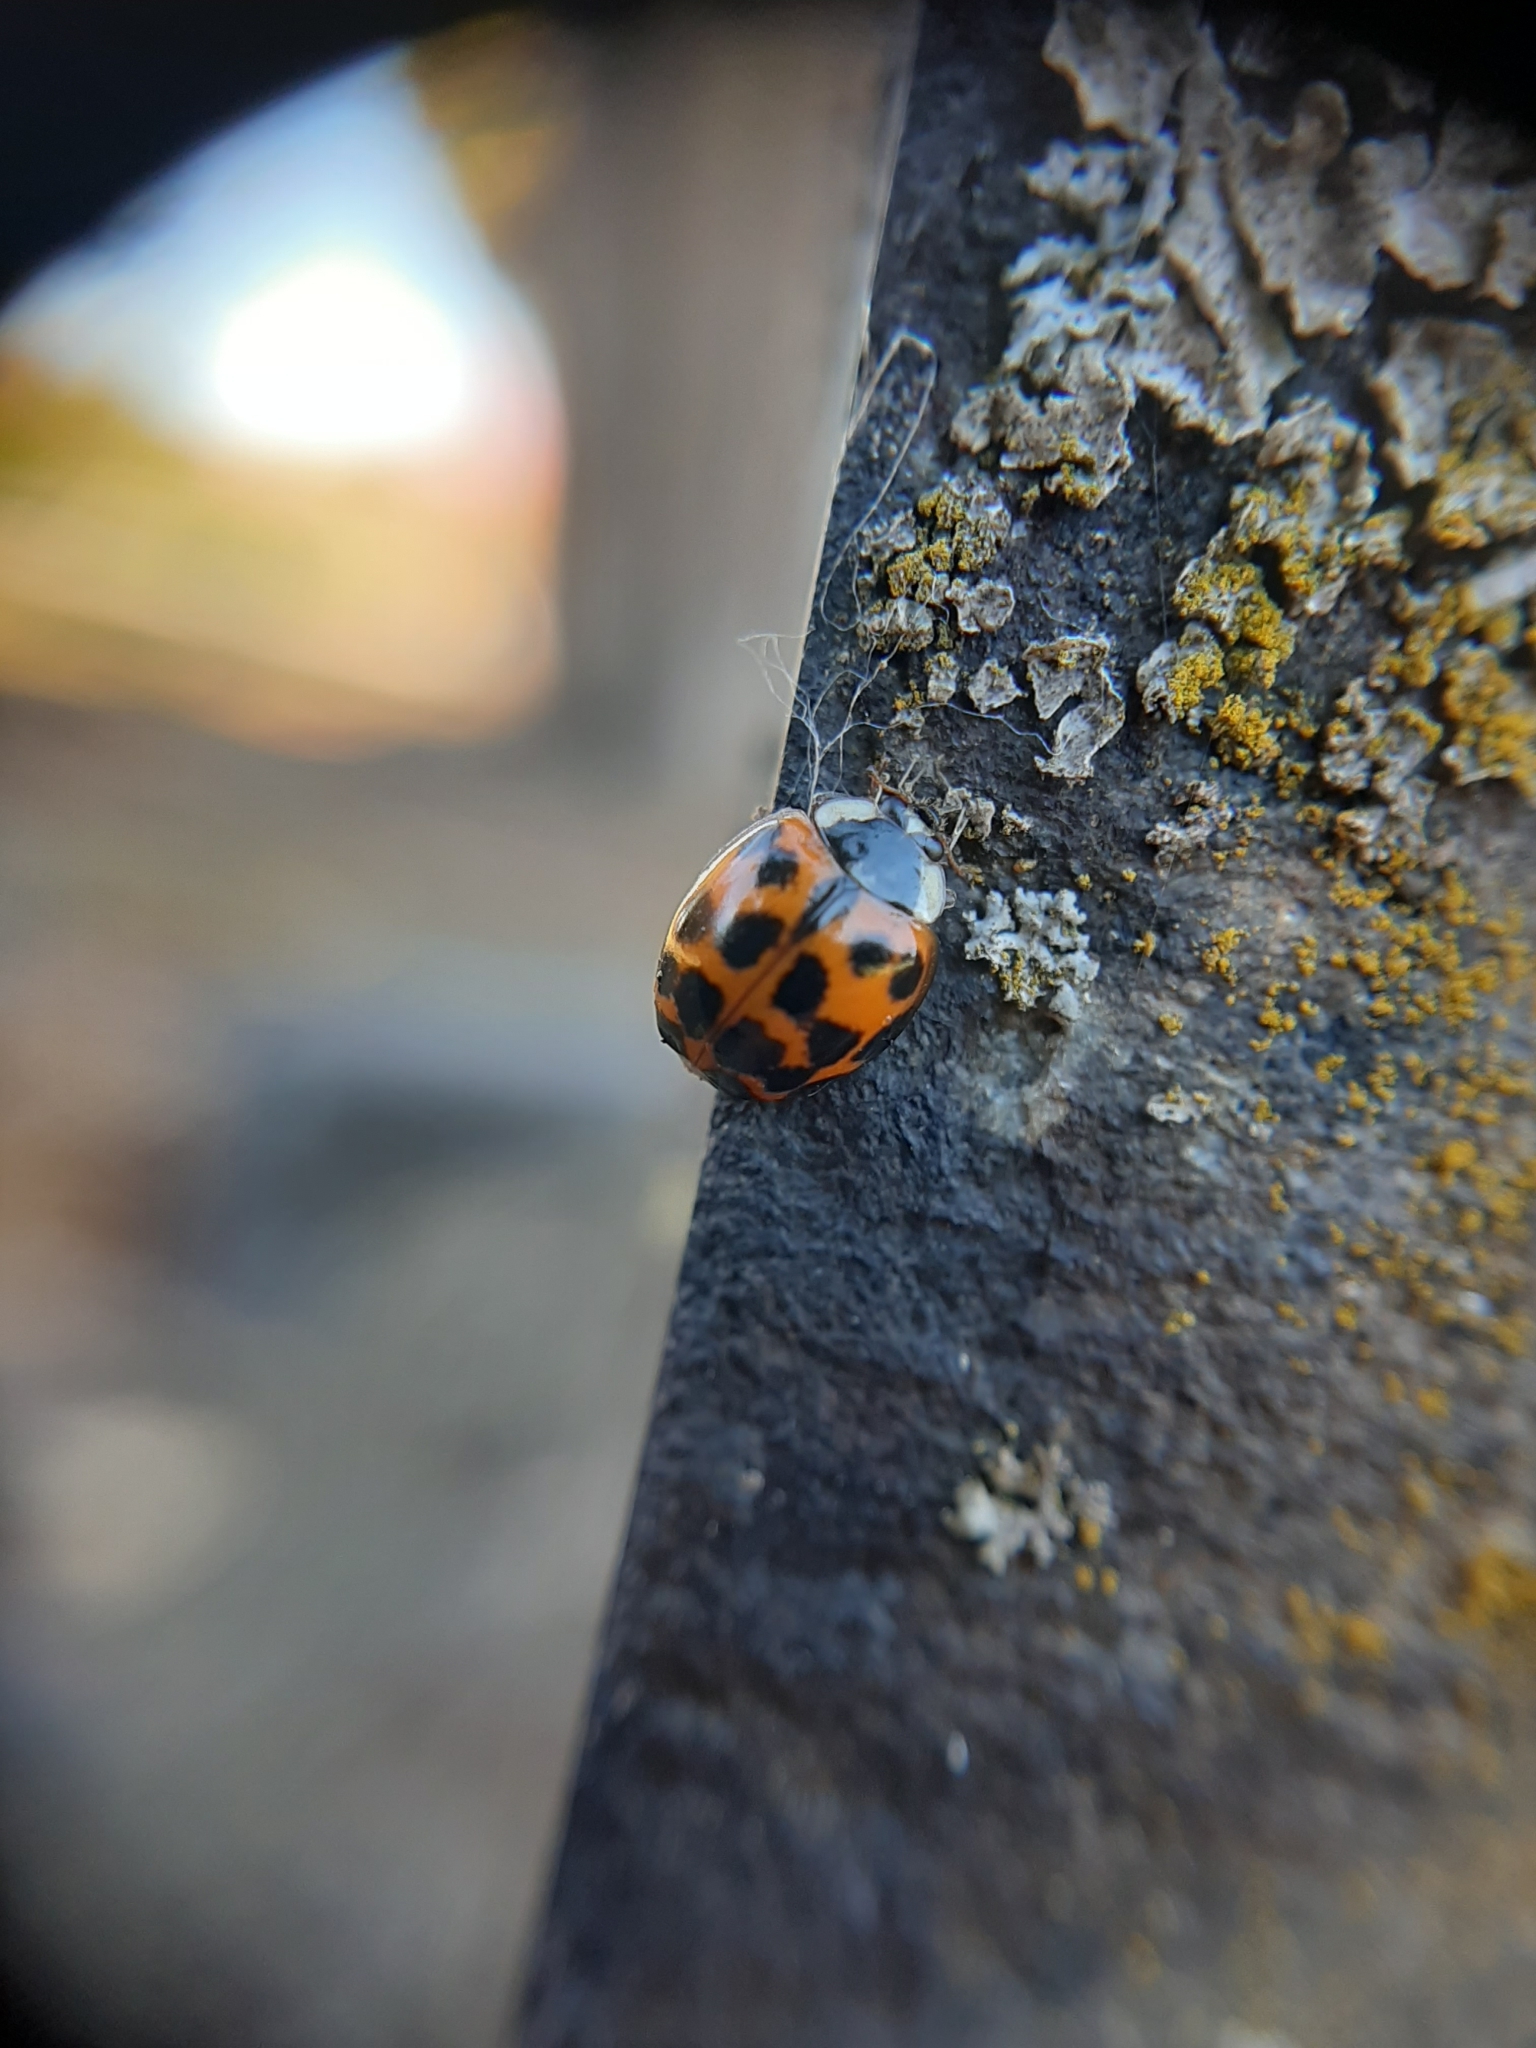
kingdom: Animalia
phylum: Arthropoda
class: Insecta
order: Coleoptera
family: Coccinellidae
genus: Harmonia
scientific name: Harmonia axyridis
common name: Harlequin ladybird
